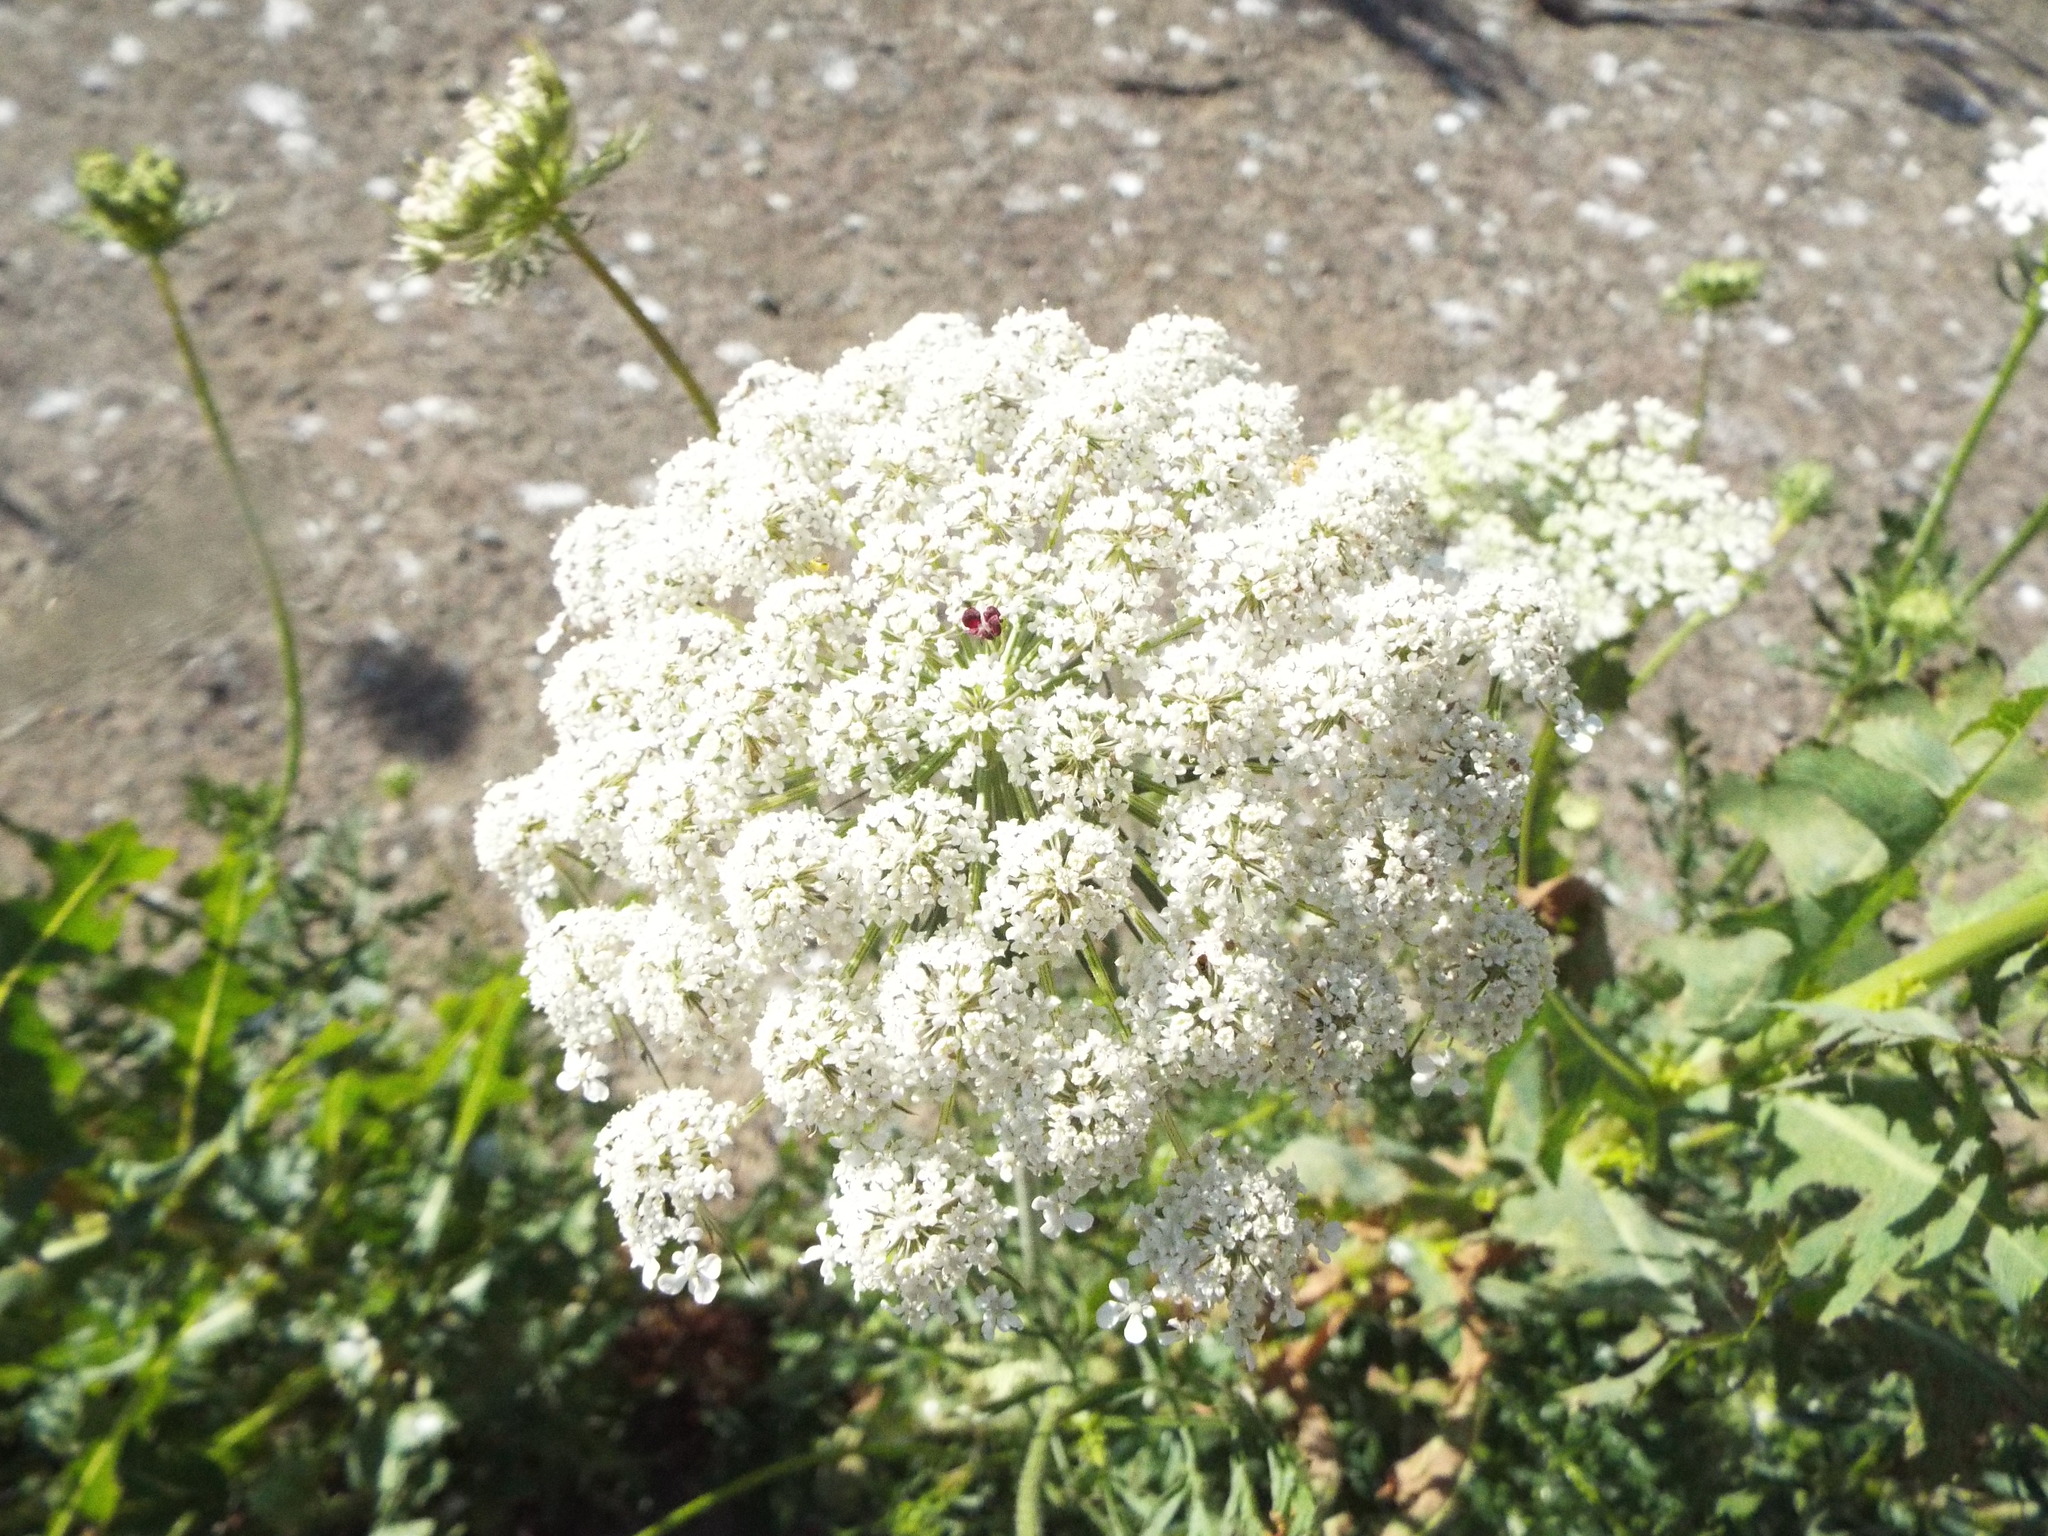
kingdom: Plantae
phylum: Tracheophyta
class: Magnoliopsida
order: Apiales
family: Apiaceae
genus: Daucus
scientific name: Daucus carota
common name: Wild carrot
